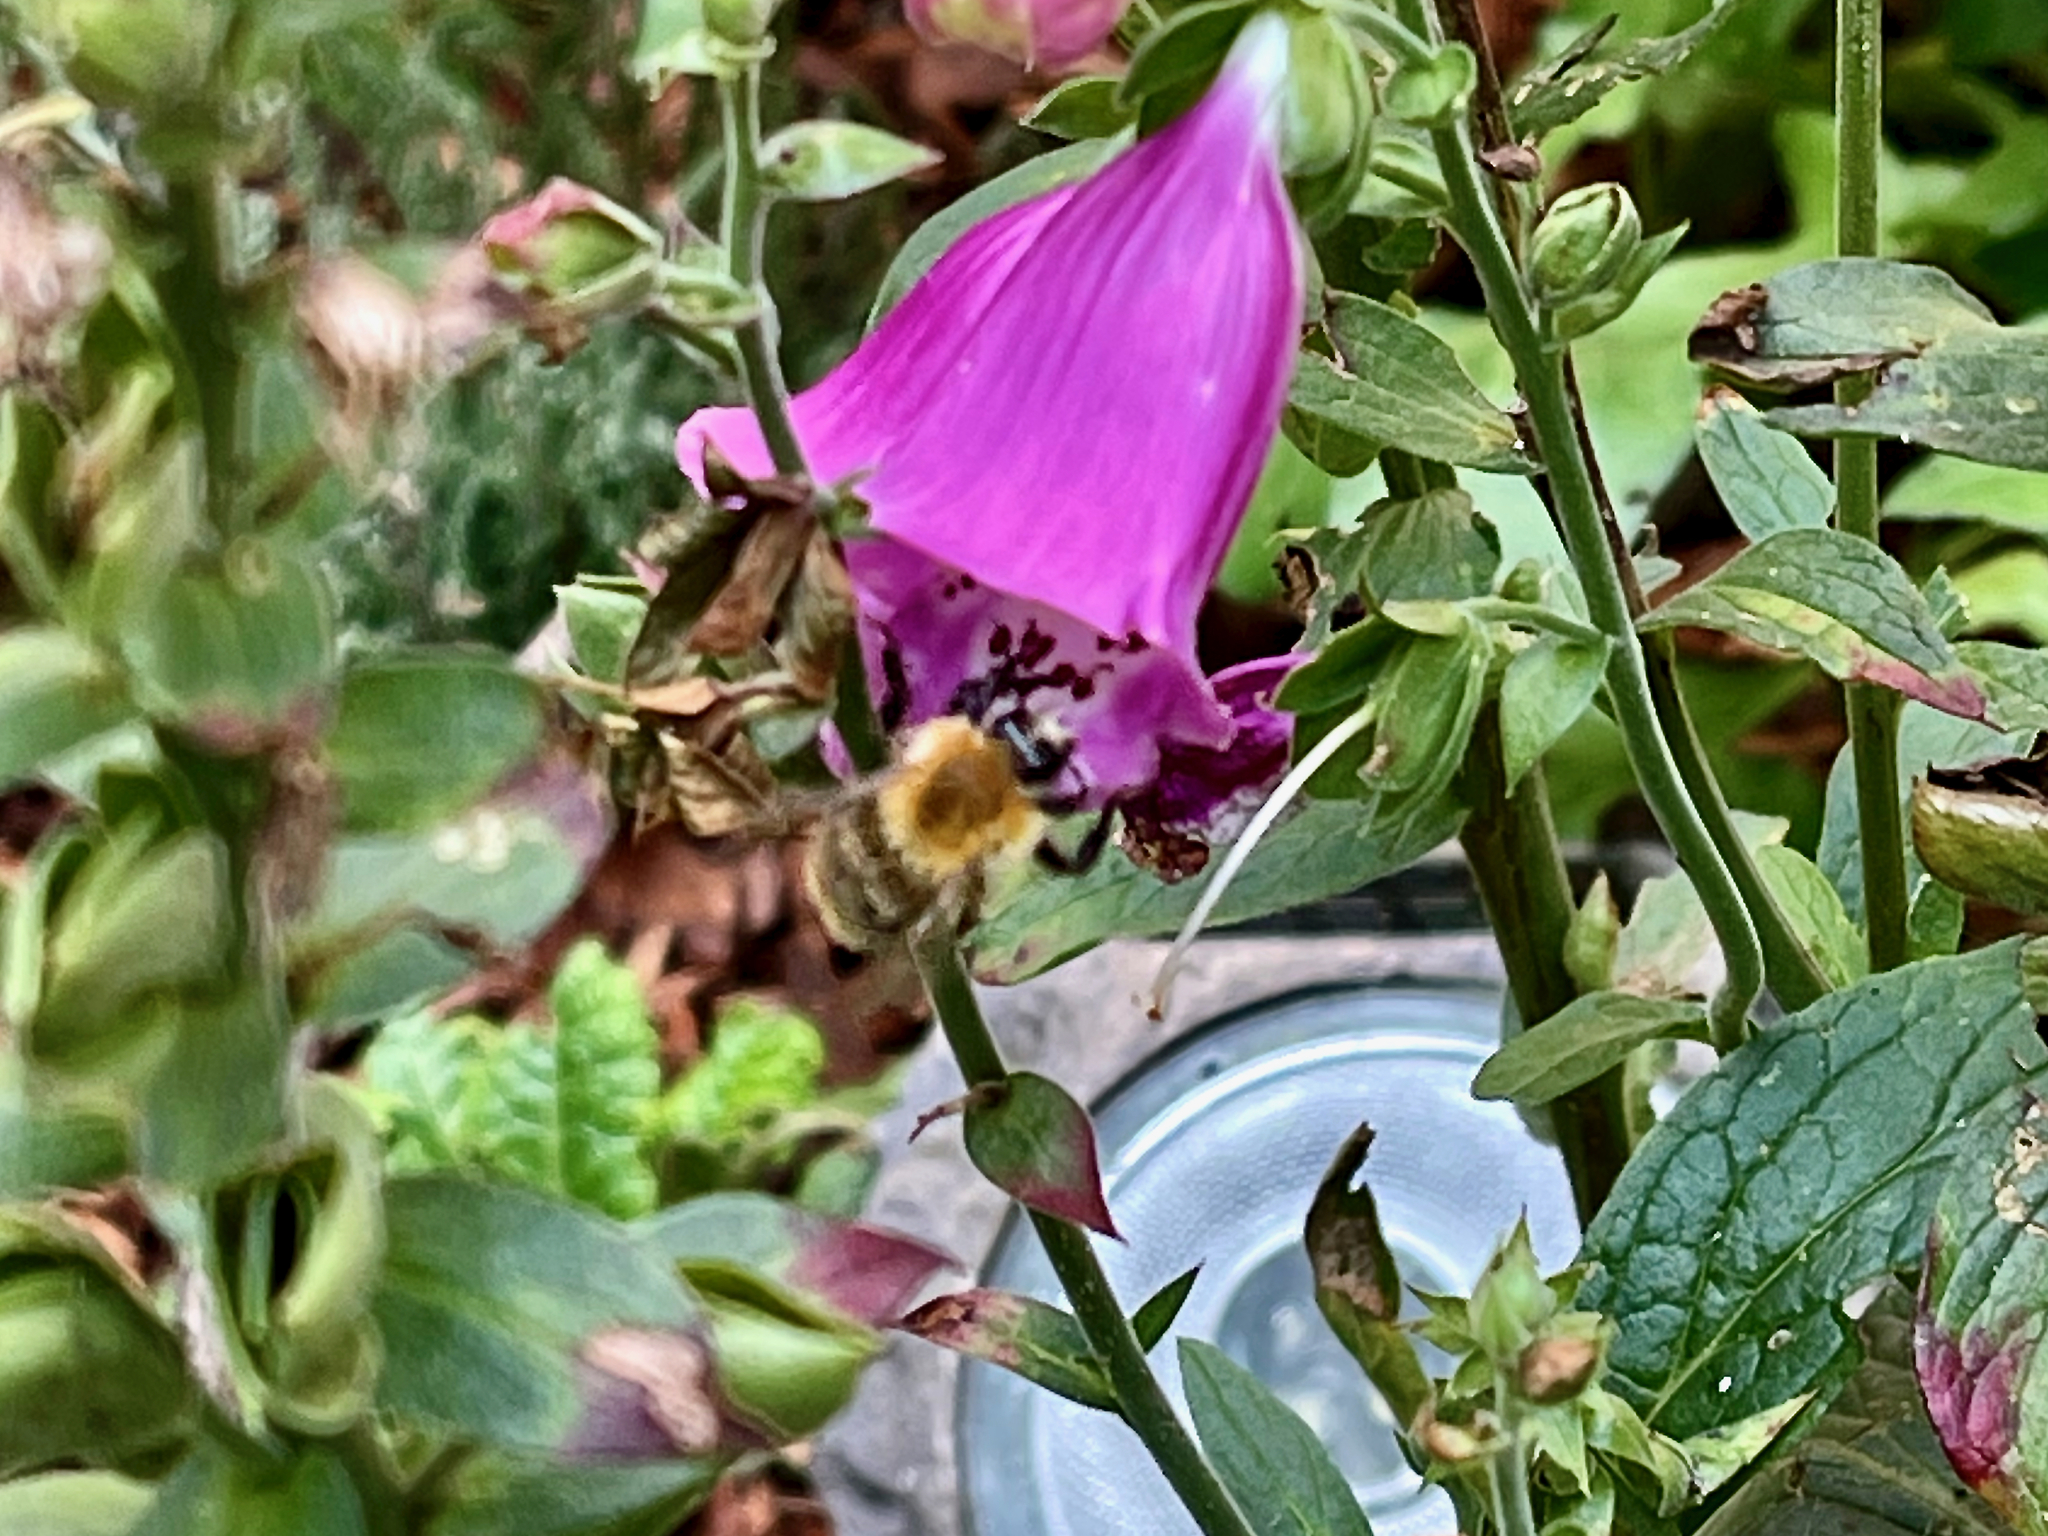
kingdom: Animalia
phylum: Arthropoda
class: Insecta
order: Hymenoptera
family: Apidae
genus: Bombus
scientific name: Bombus pascuorum
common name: Common carder bee
